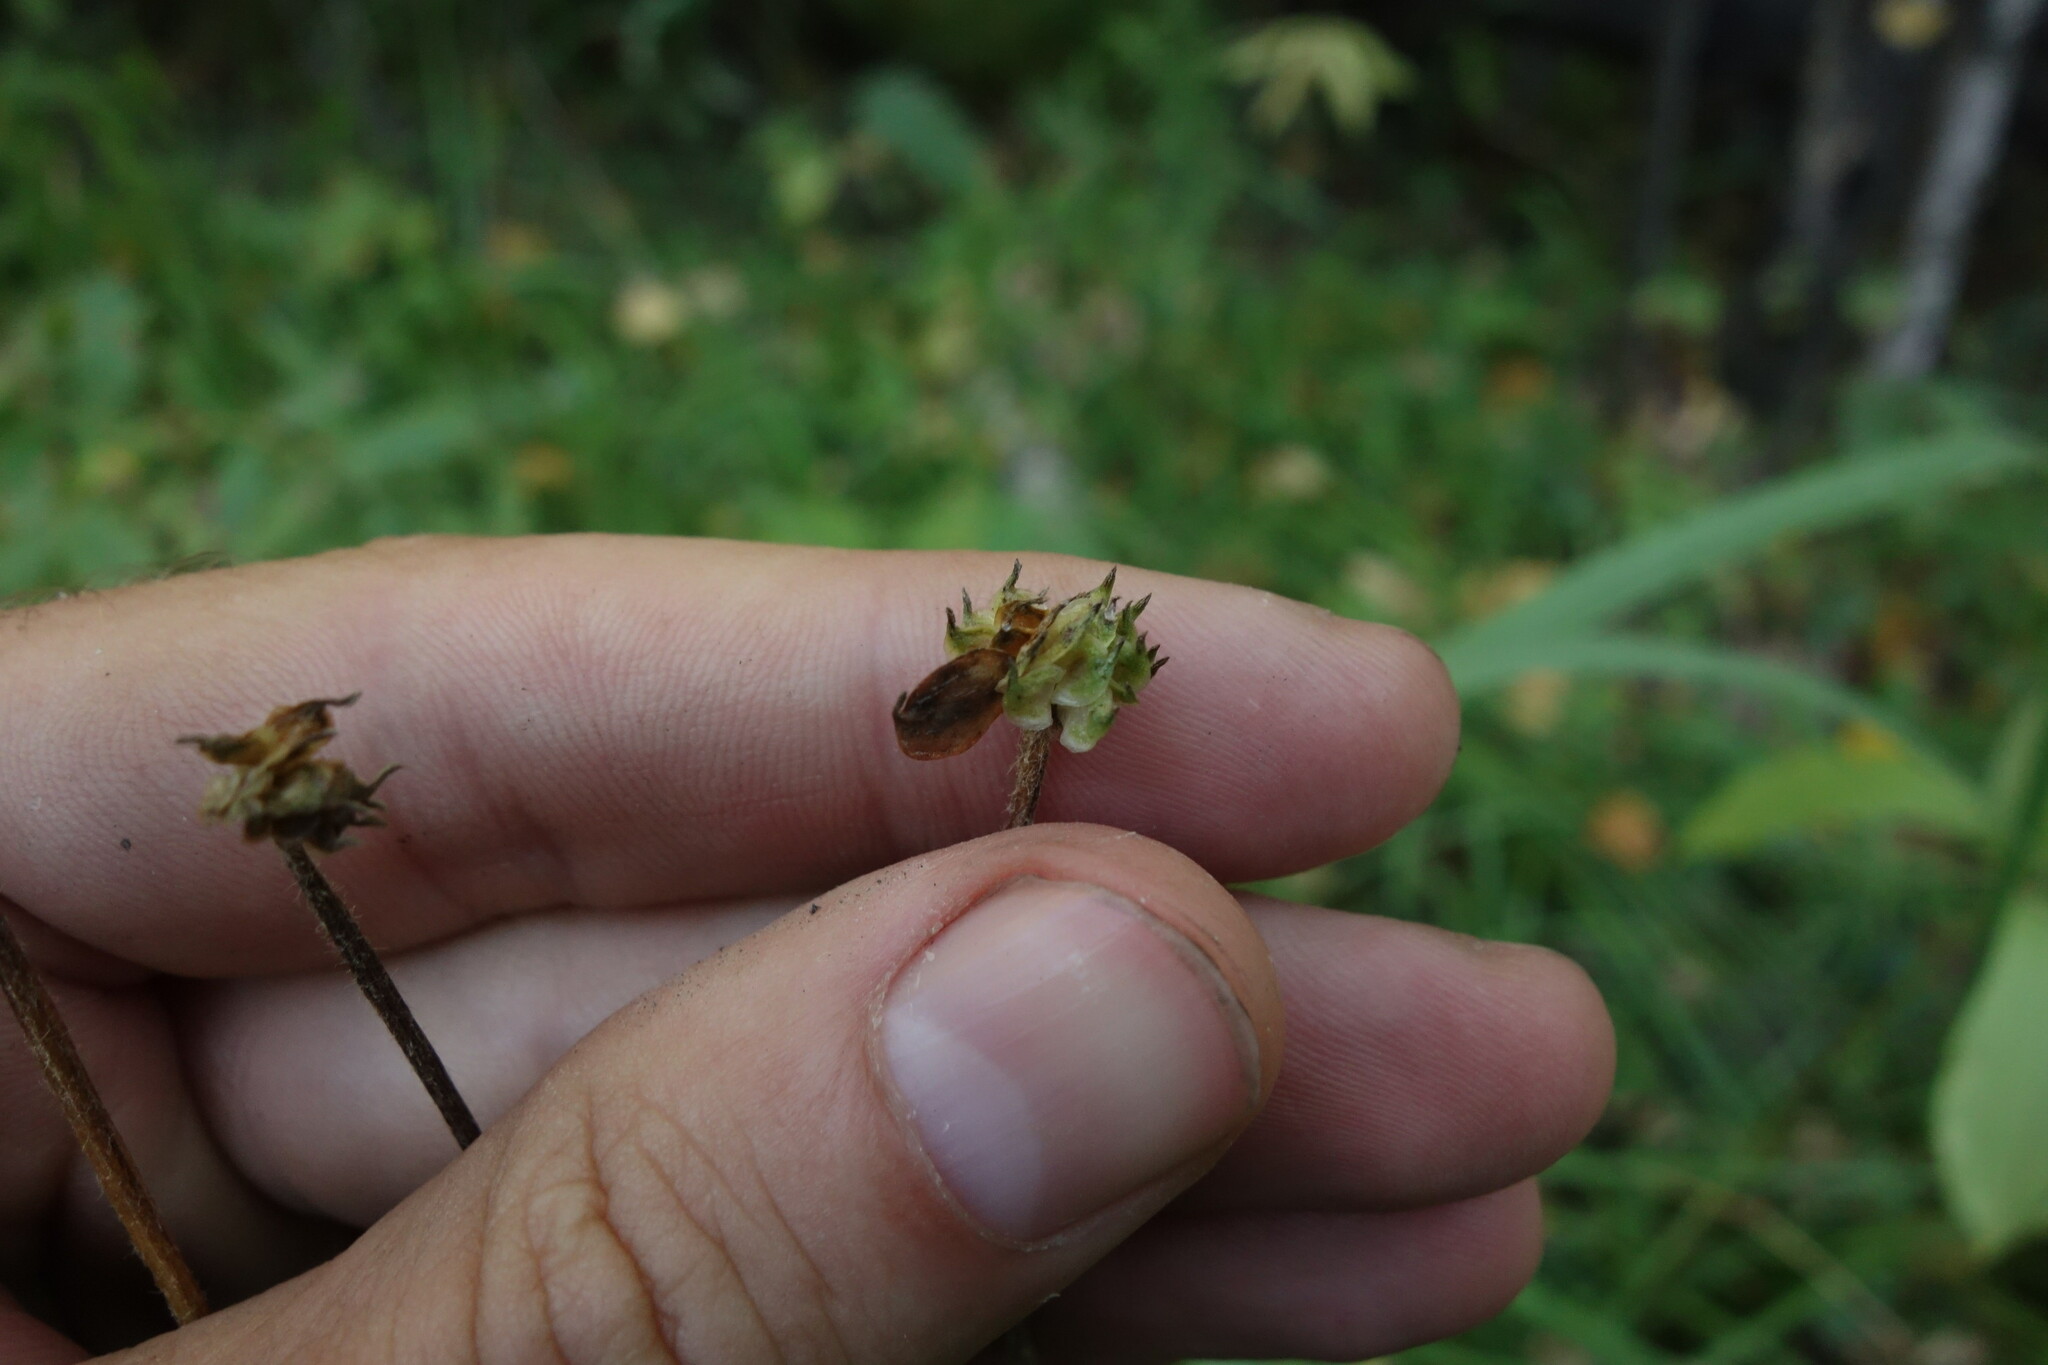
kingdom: Plantae
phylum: Tracheophyta
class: Magnoliopsida
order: Ranunculales
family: Ranunculaceae
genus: Anemonastrum
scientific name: Anemonastrum narcissiflorum
